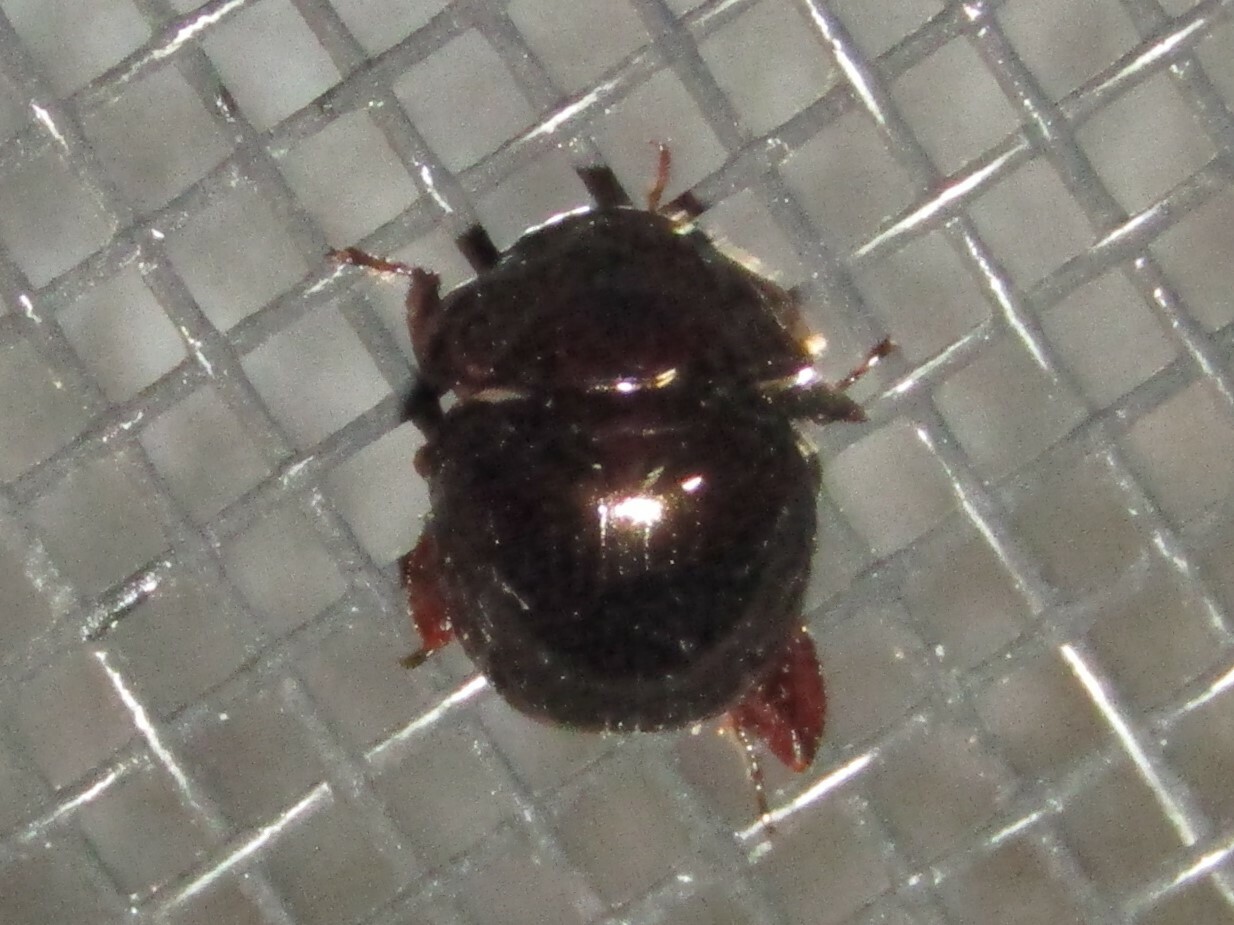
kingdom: Animalia
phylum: Arthropoda
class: Insecta
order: Coleoptera
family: Hybosoridae
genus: Ceratocanthus
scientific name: Ceratocanthus aeneus
